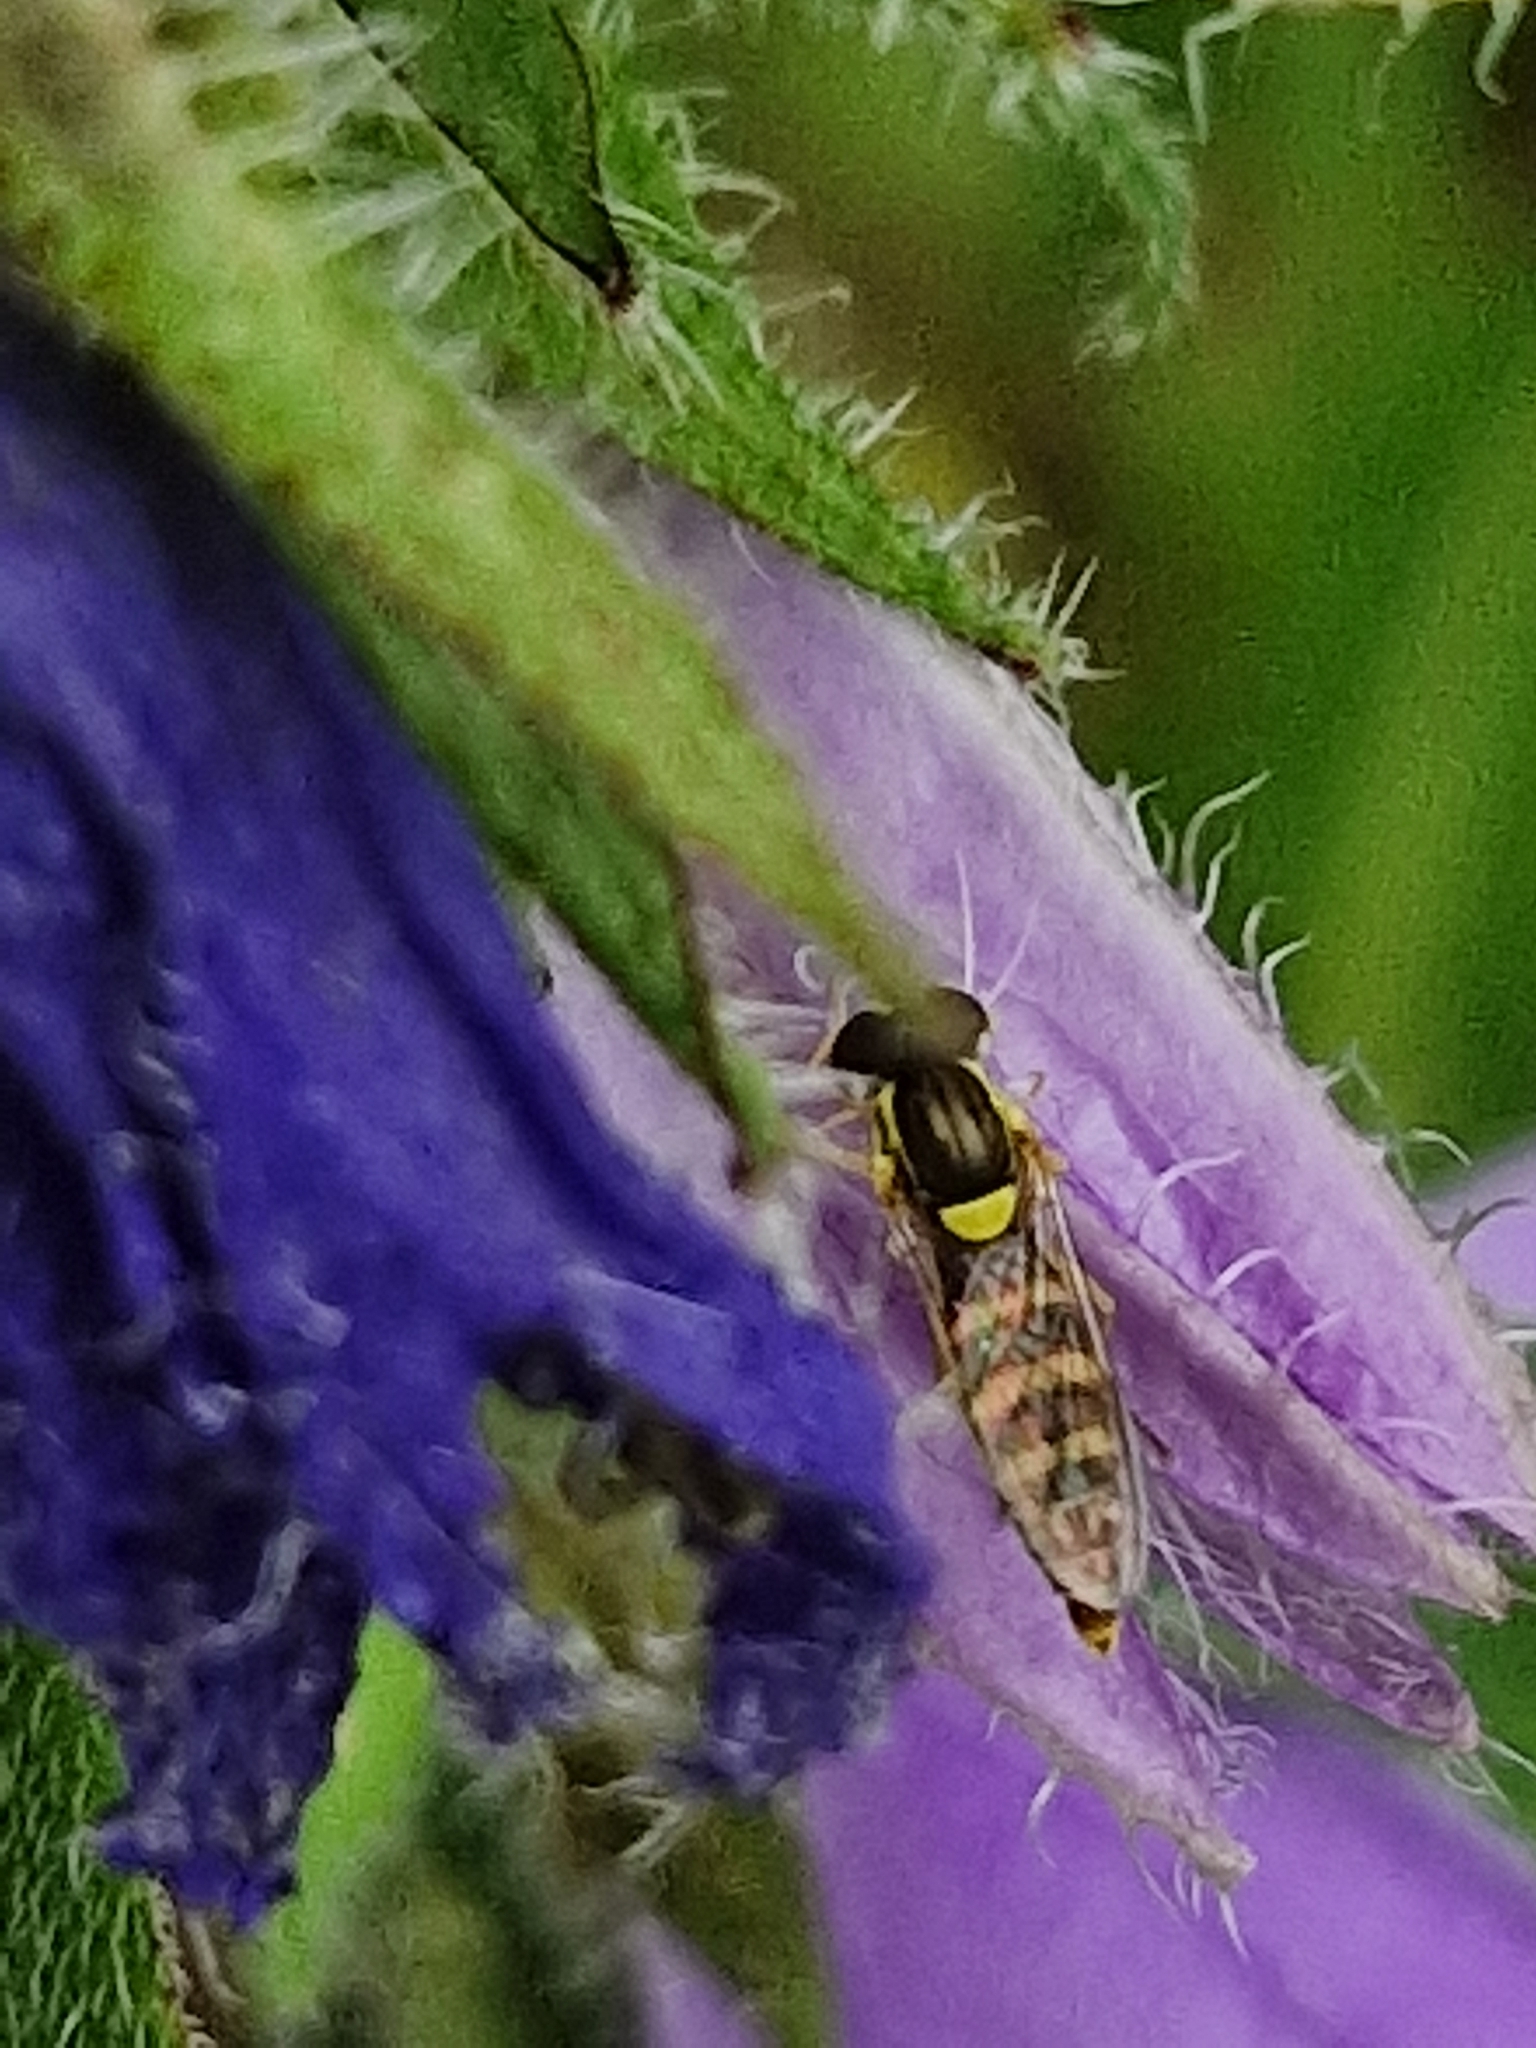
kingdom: Animalia
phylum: Arthropoda
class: Insecta
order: Diptera
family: Syrphidae
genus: Sphaerophoria
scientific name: Sphaerophoria
